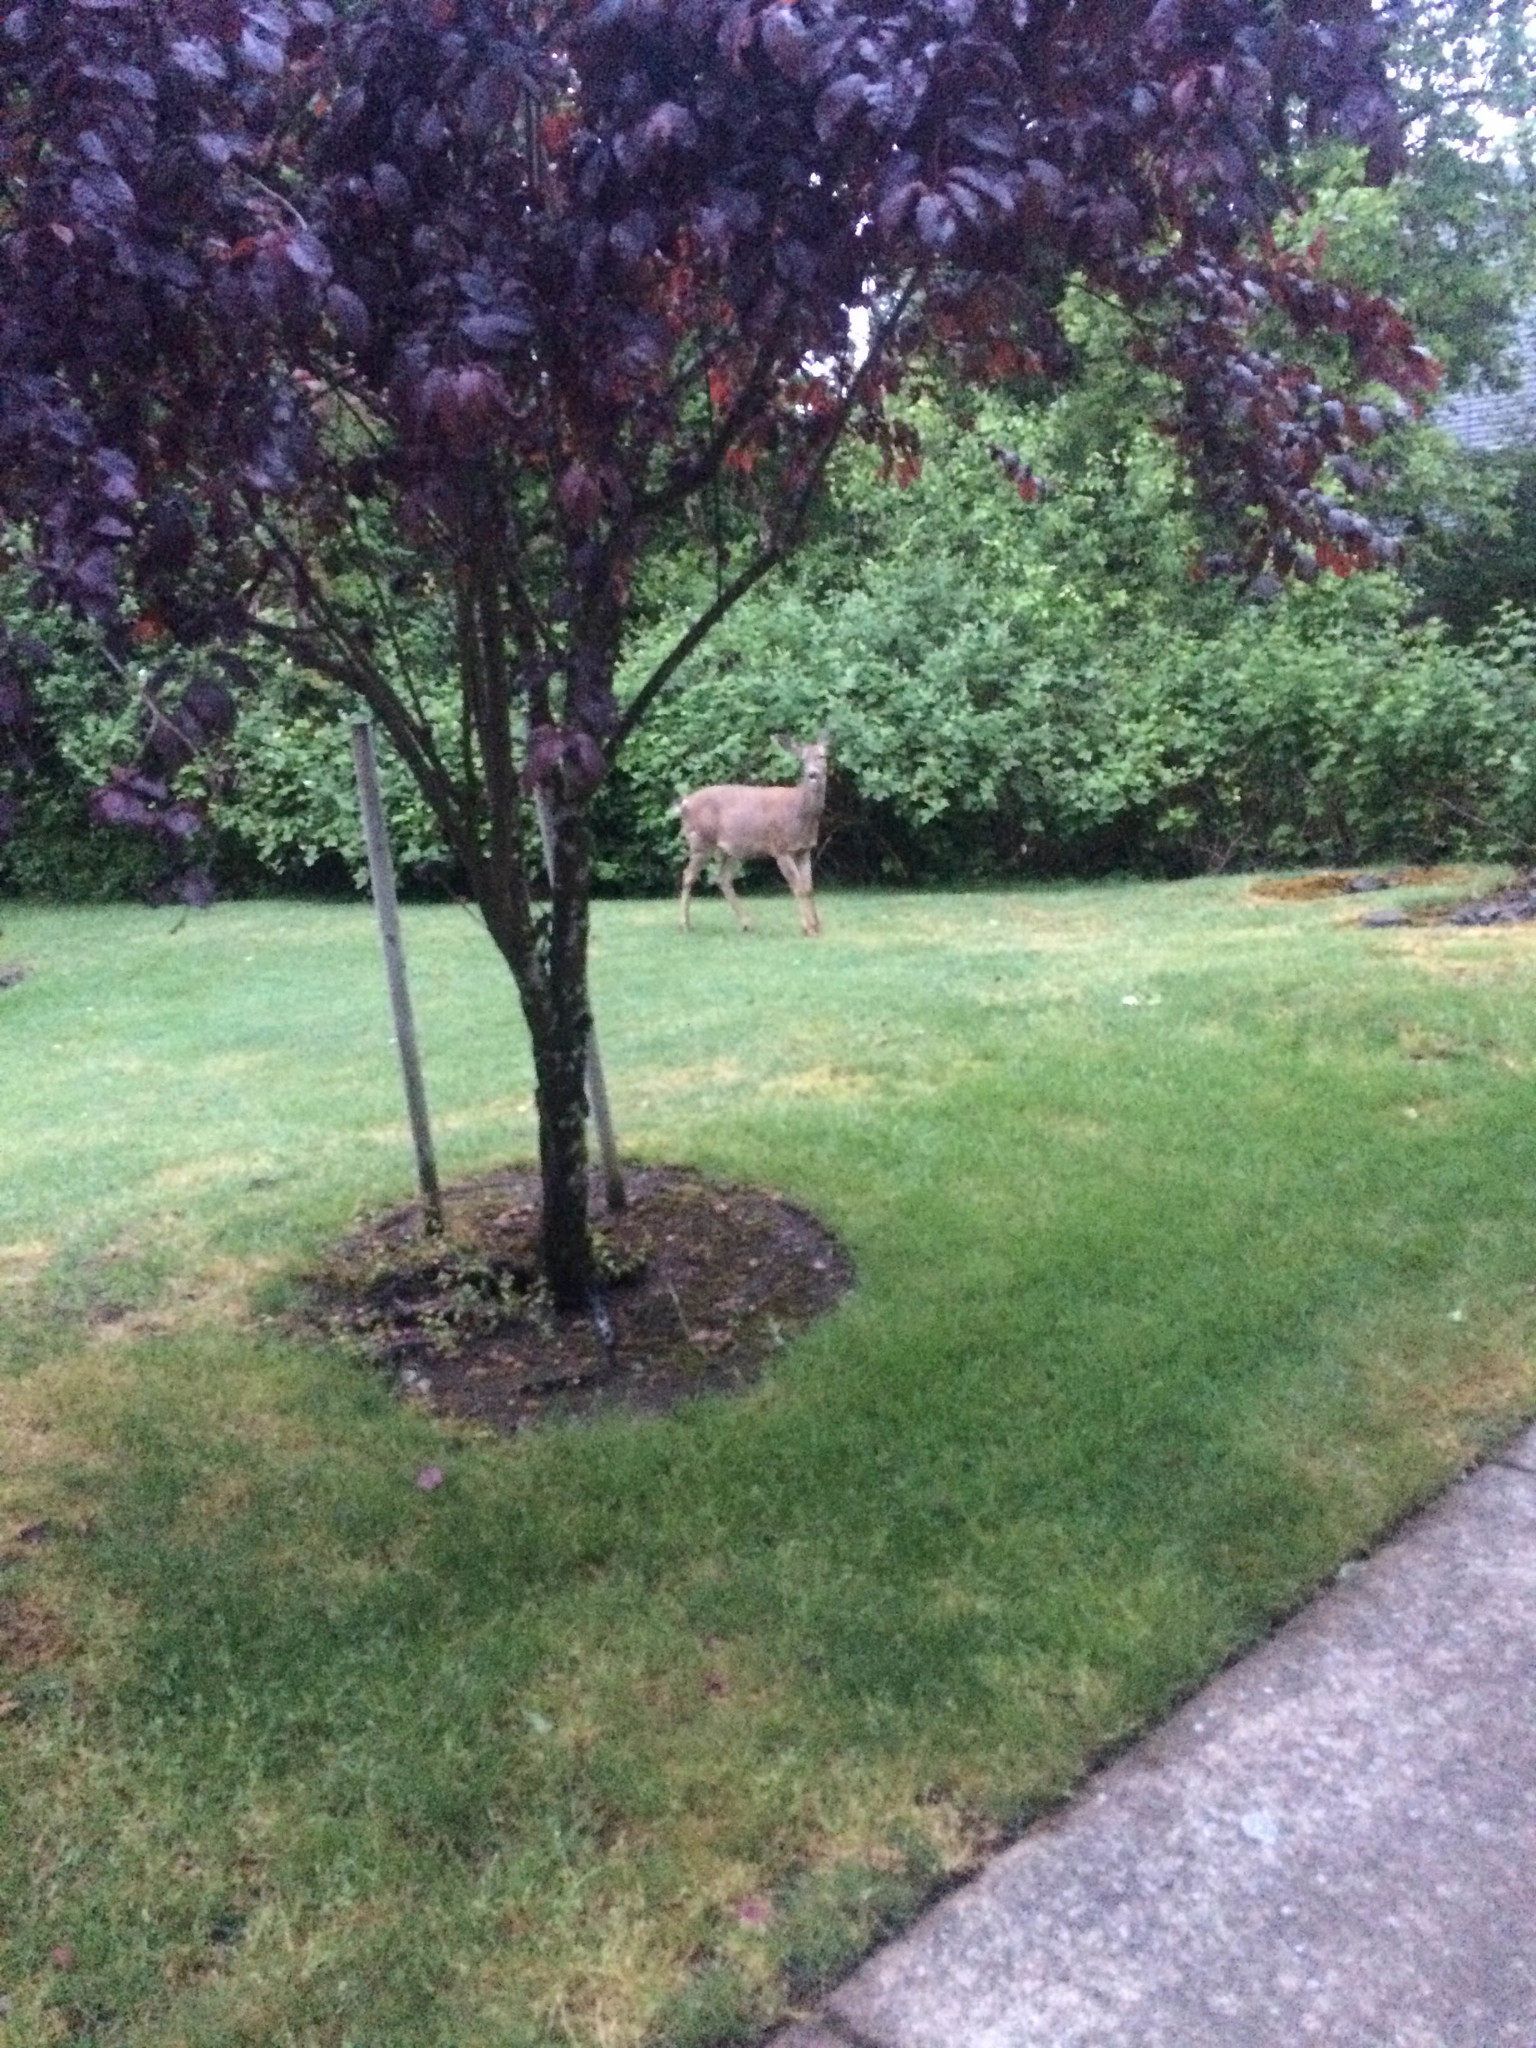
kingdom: Animalia
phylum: Chordata
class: Mammalia
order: Artiodactyla
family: Cervidae
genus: Odocoileus
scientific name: Odocoileus hemionus
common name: Mule deer
